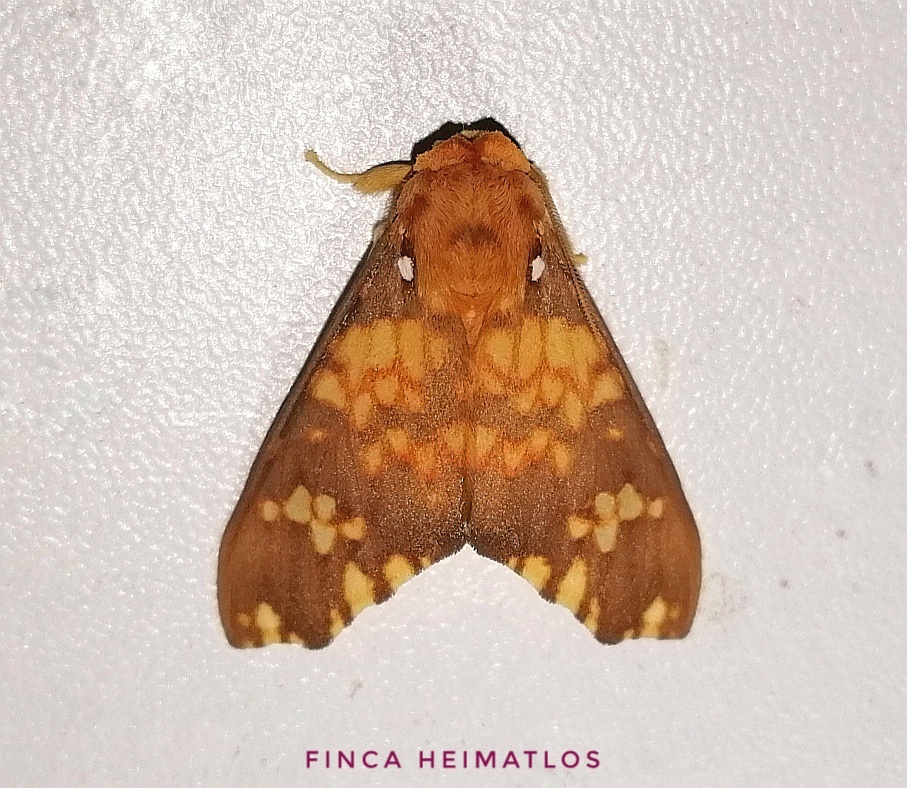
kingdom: Animalia
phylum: Arthropoda
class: Insecta
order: Lepidoptera
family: Erebidae
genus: Echeta
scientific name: Echeta pandiona
